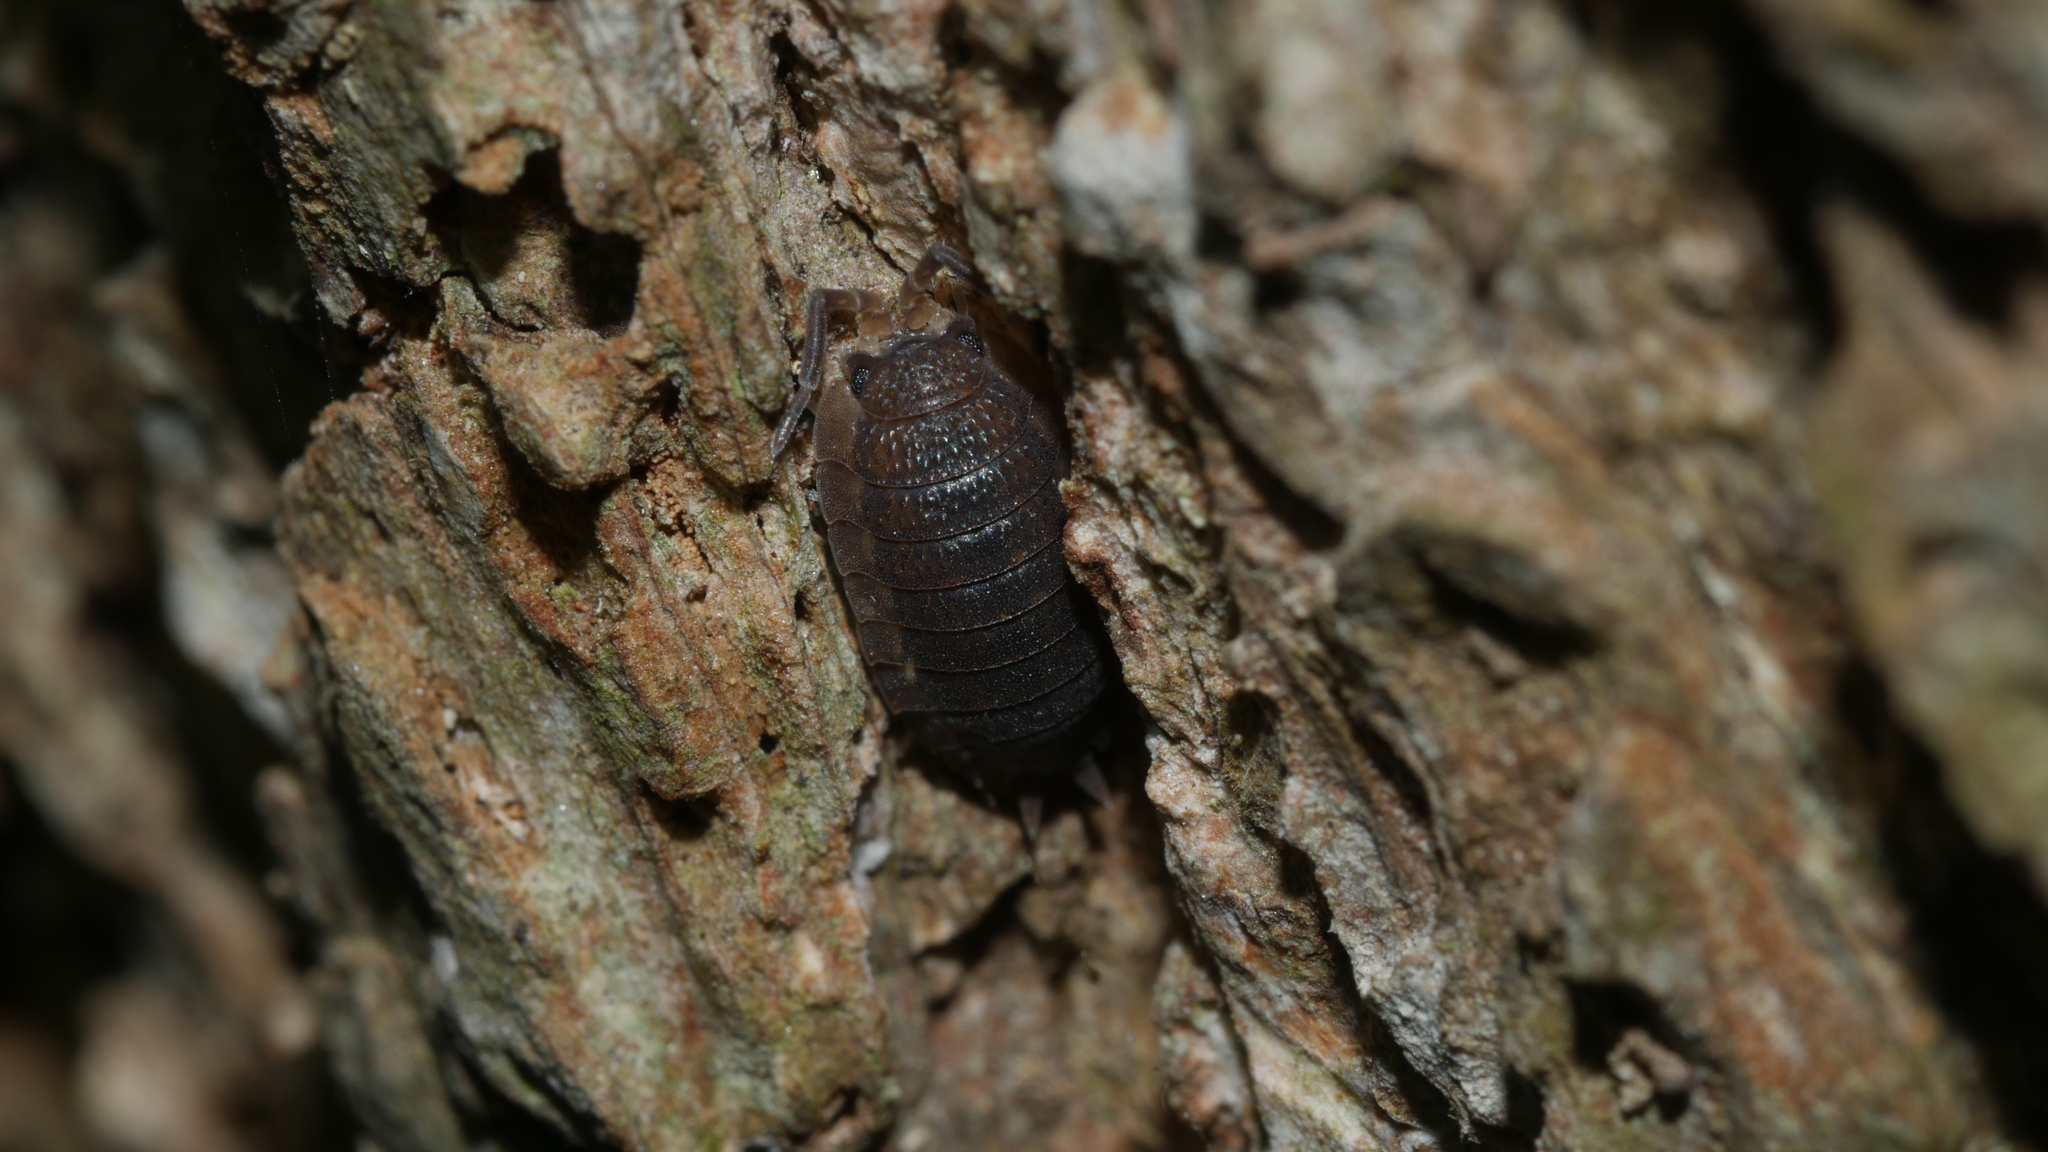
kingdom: Animalia
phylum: Arthropoda
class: Malacostraca
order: Isopoda
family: Porcellionidae
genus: Porcellio
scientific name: Porcellio scaber
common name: Common rough woodlouse
